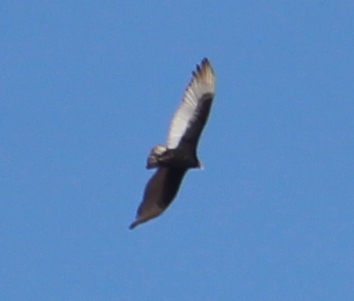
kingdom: Animalia
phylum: Chordata
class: Aves
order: Accipitriformes
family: Cathartidae
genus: Cathartes
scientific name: Cathartes aura
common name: Turkey vulture
